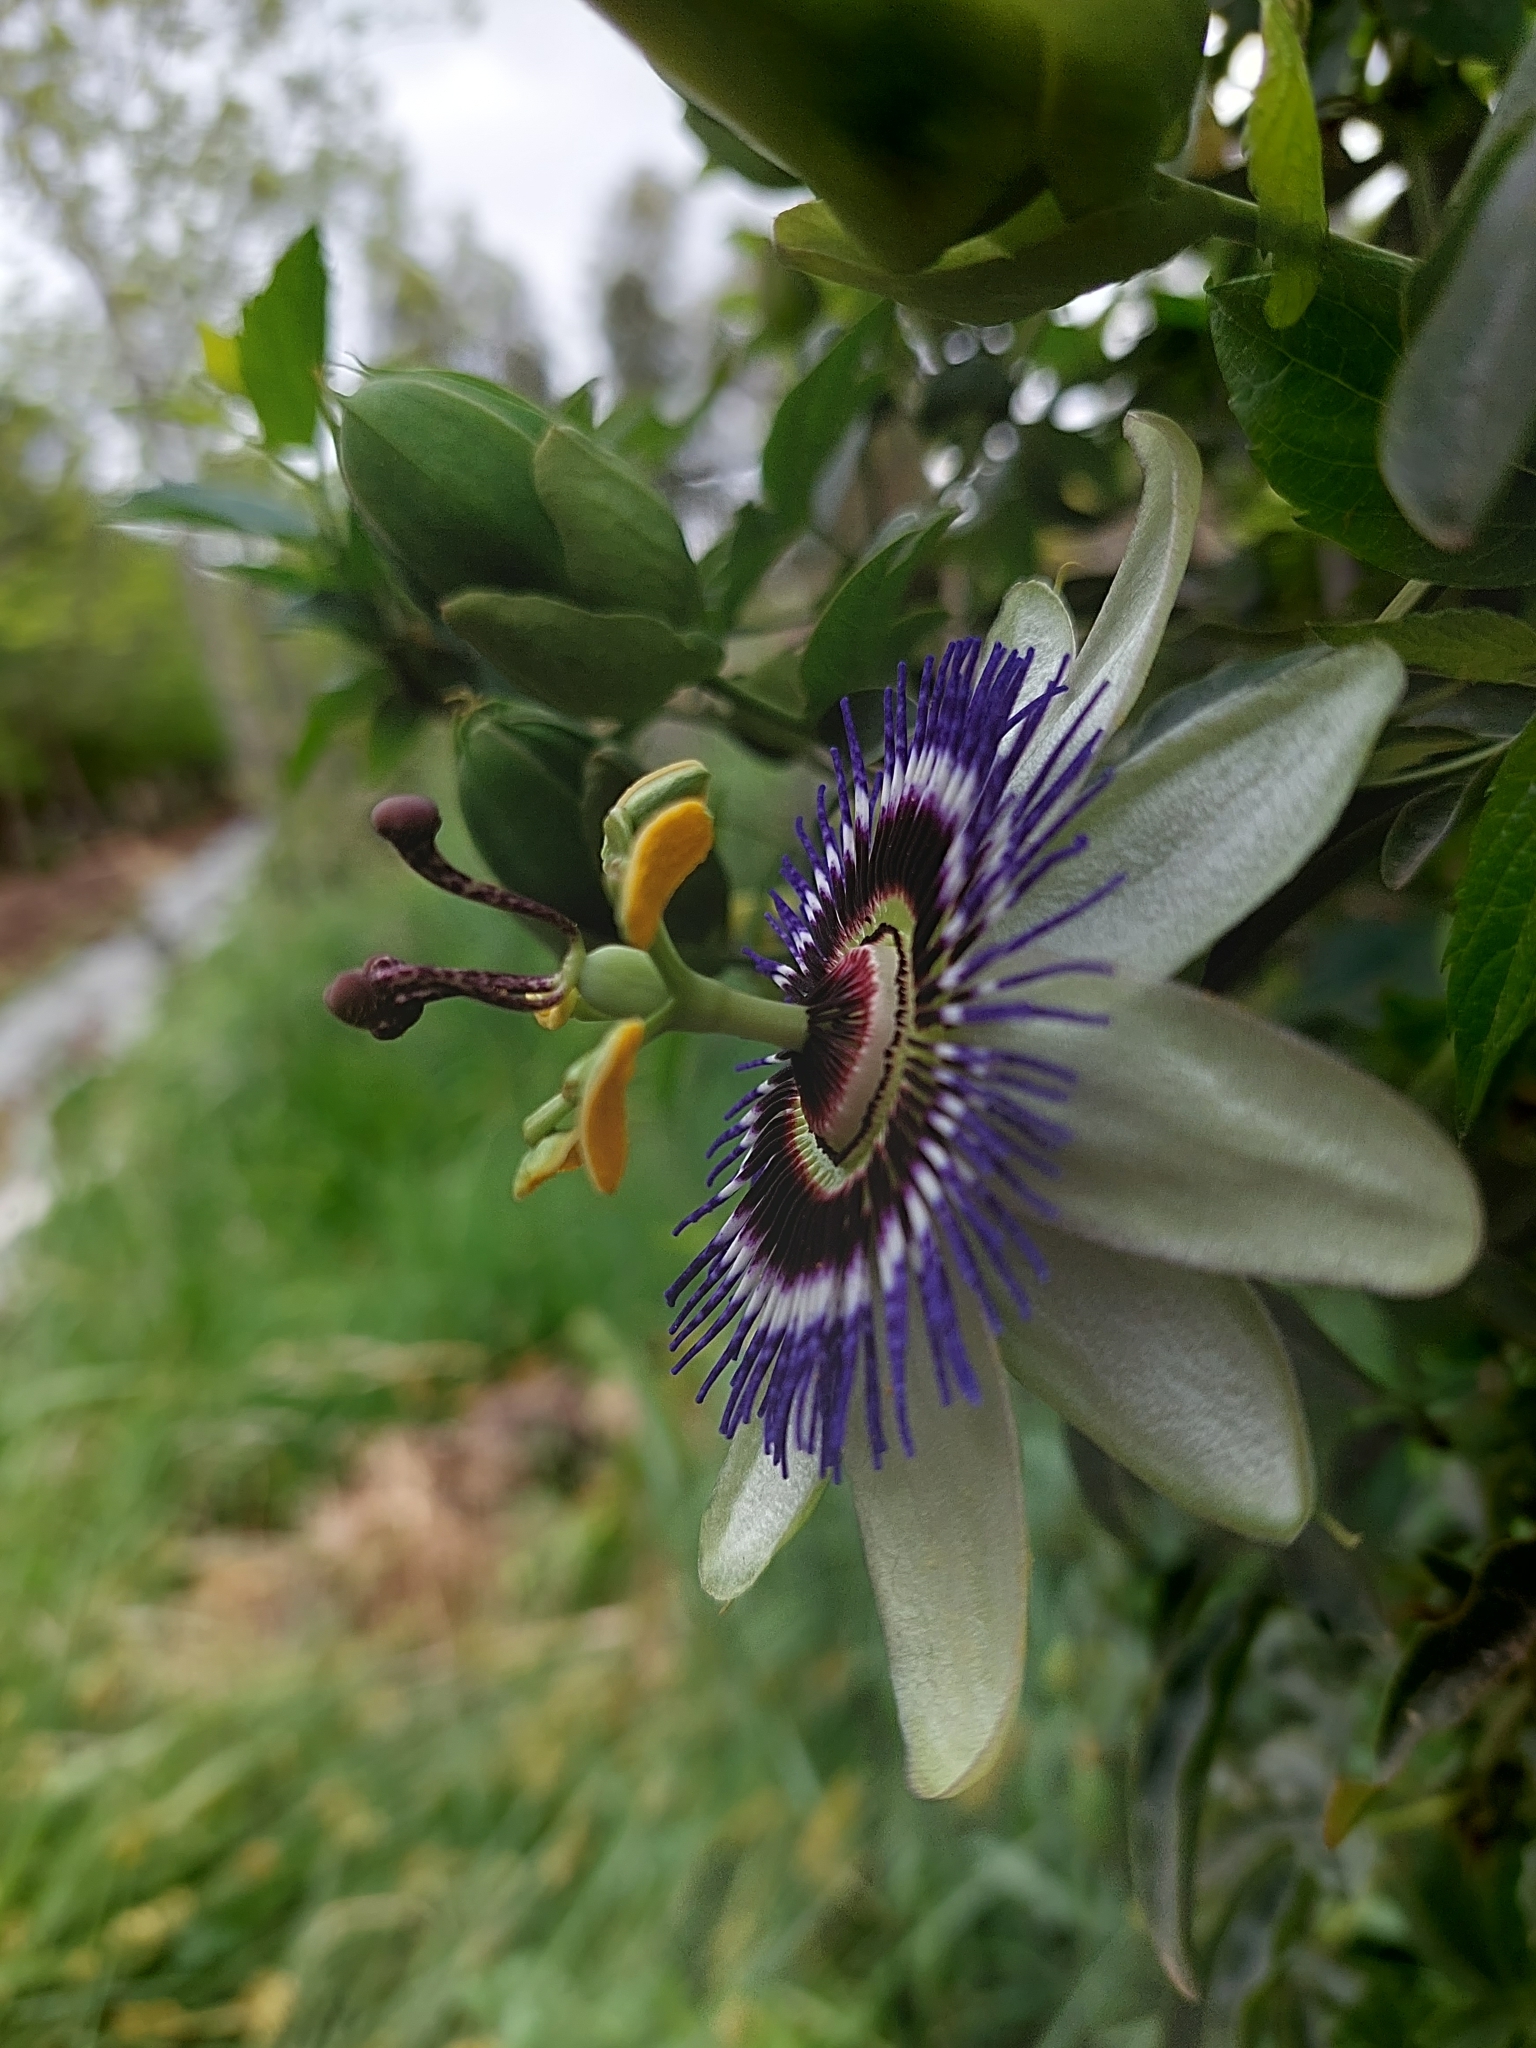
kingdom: Plantae
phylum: Tracheophyta
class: Magnoliopsida
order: Malpighiales
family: Passifloraceae
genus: Passiflora
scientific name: Passiflora caerulea
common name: Blue passionflower
